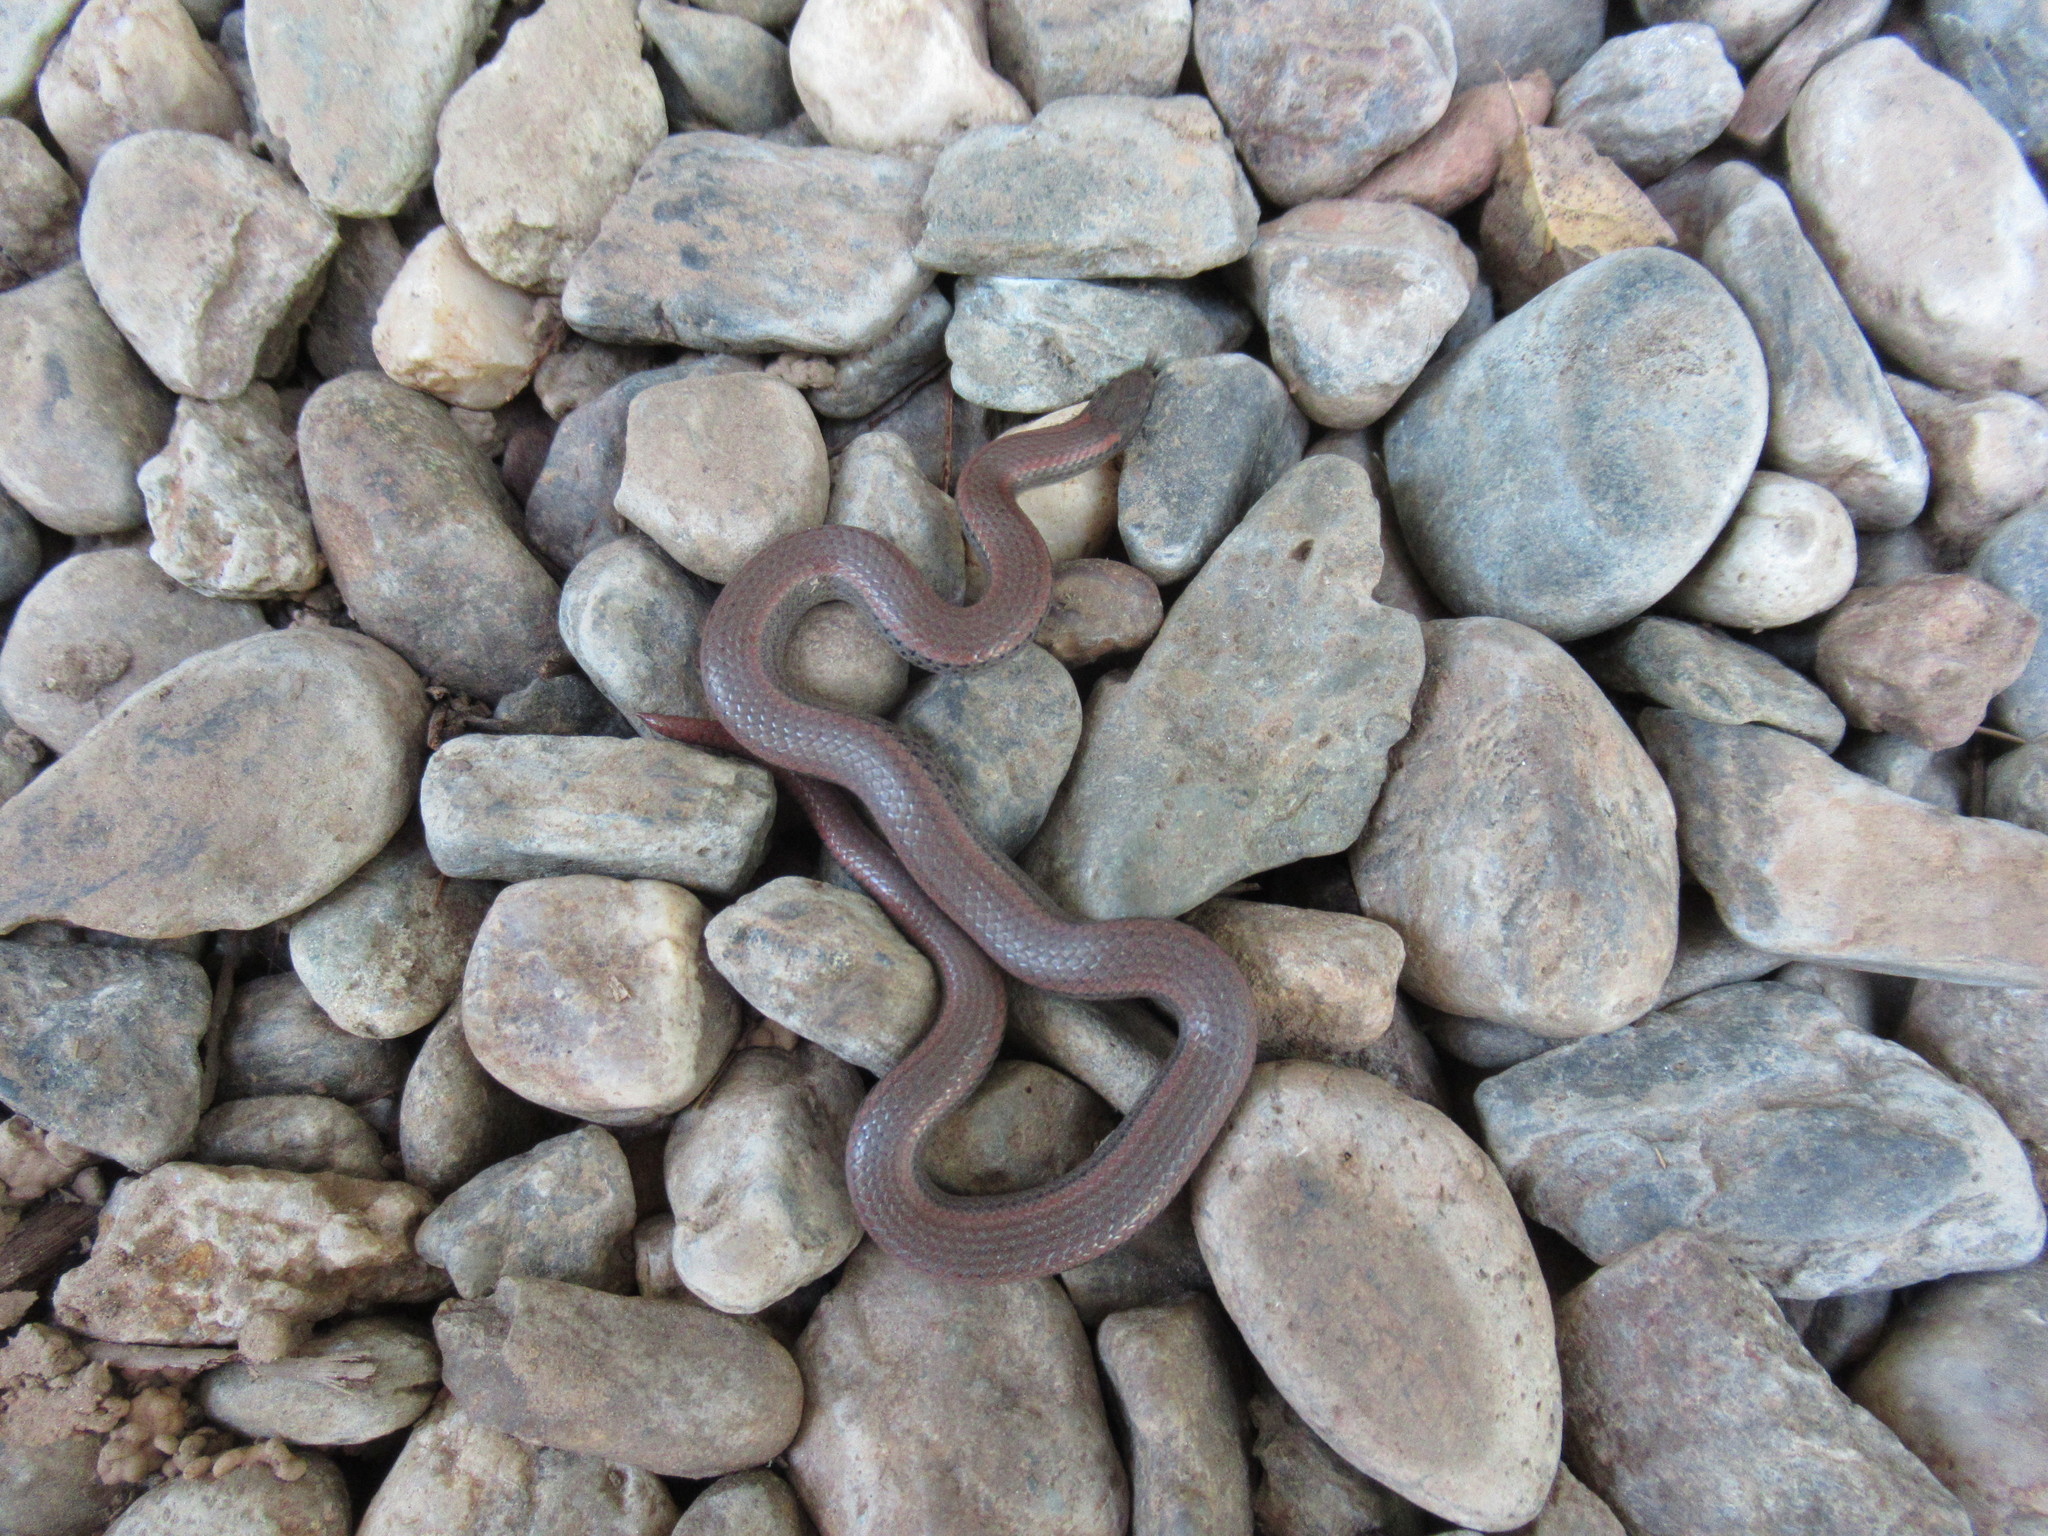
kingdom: Animalia
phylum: Chordata
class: Squamata
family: Colubridae
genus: Contia
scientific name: Contia tenuis
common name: Sharptail snake
